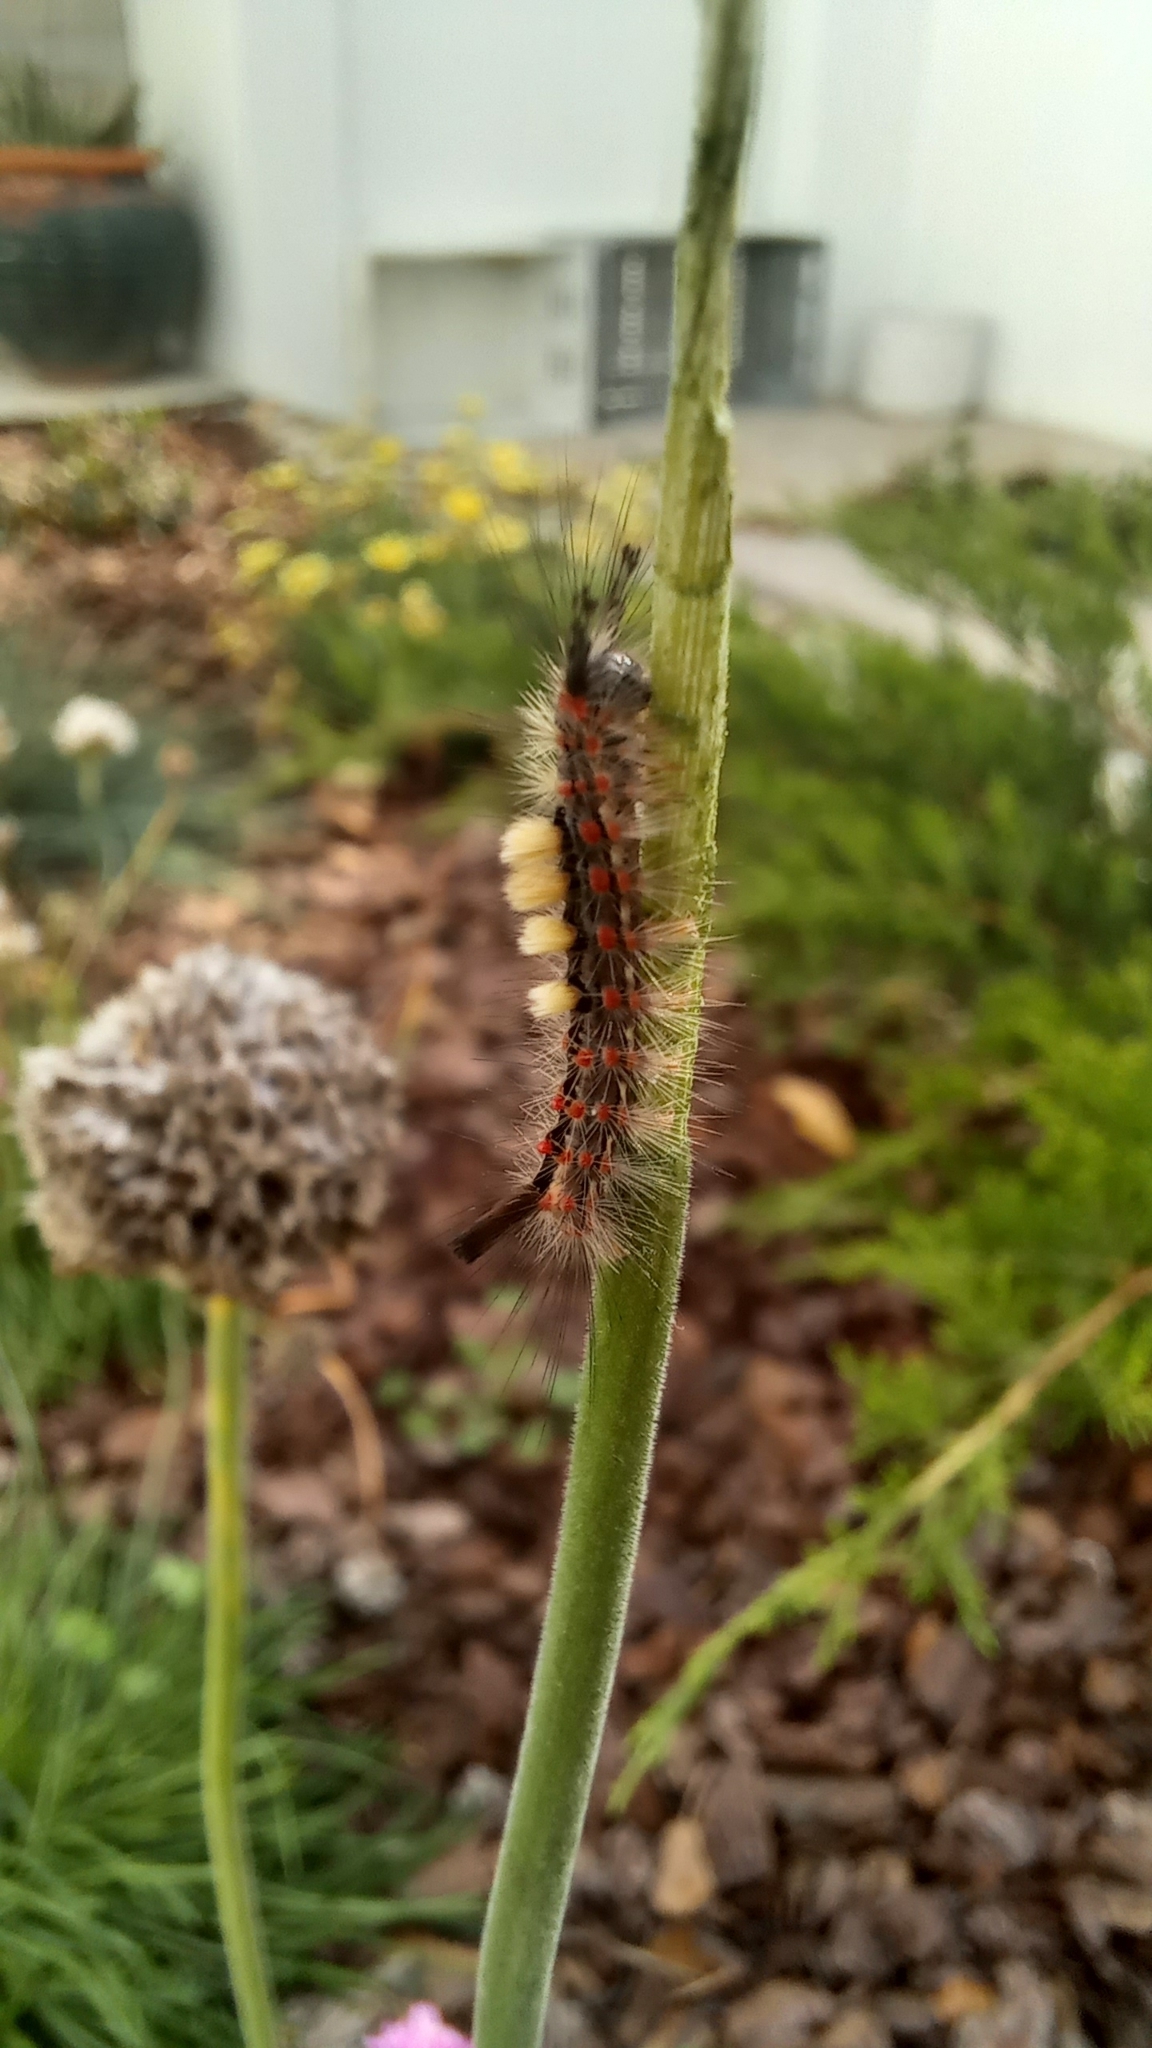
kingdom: Animalia
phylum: Arthropoda
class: Insecta
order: Lepidoptera
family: Erebidae
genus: Orgyia
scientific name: Orgyia antiqua
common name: Vapourer
